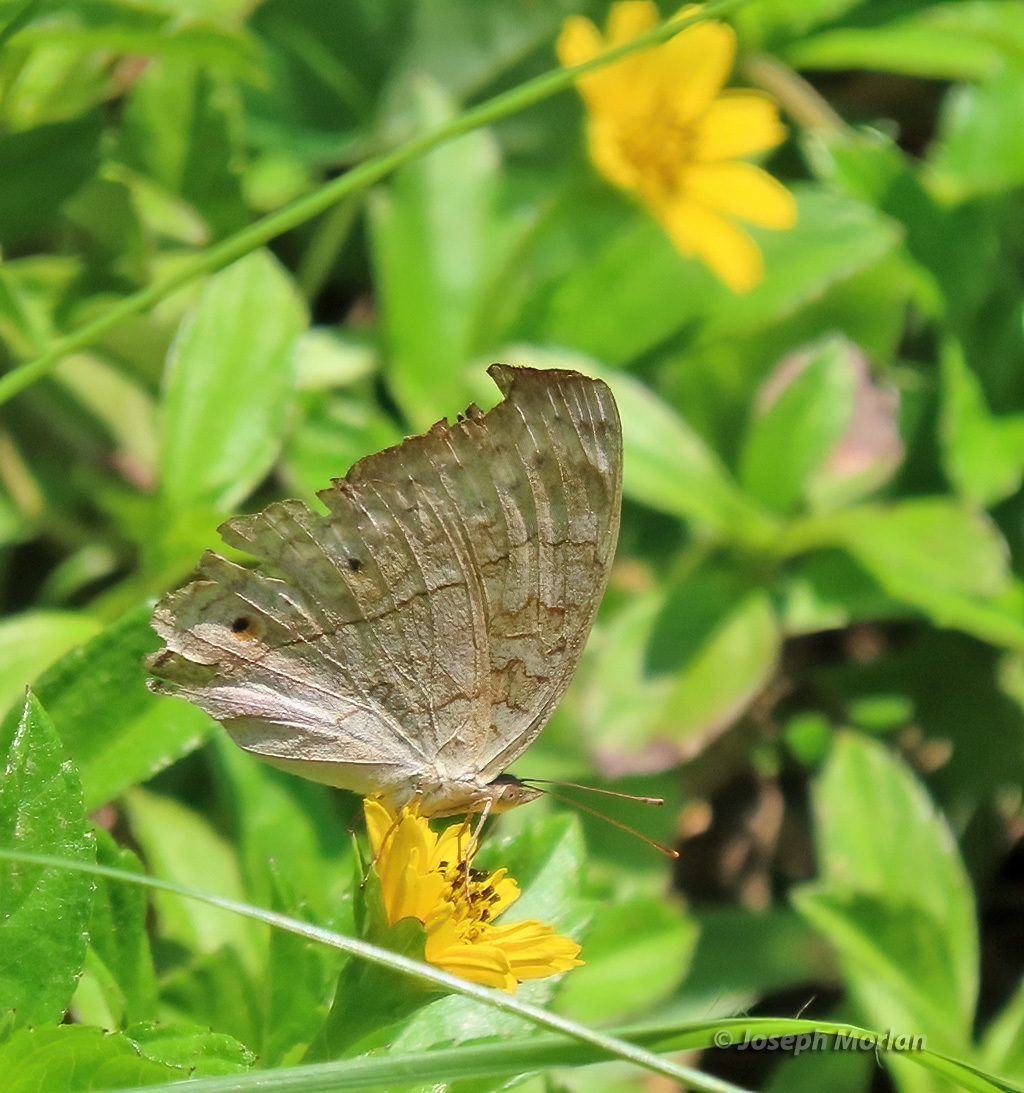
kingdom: Animalia
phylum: Arthropoda
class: Insecta
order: Lepidoptera
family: Nymphalidae
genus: Junonia
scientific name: Junonia atlites
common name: Grey pansy
